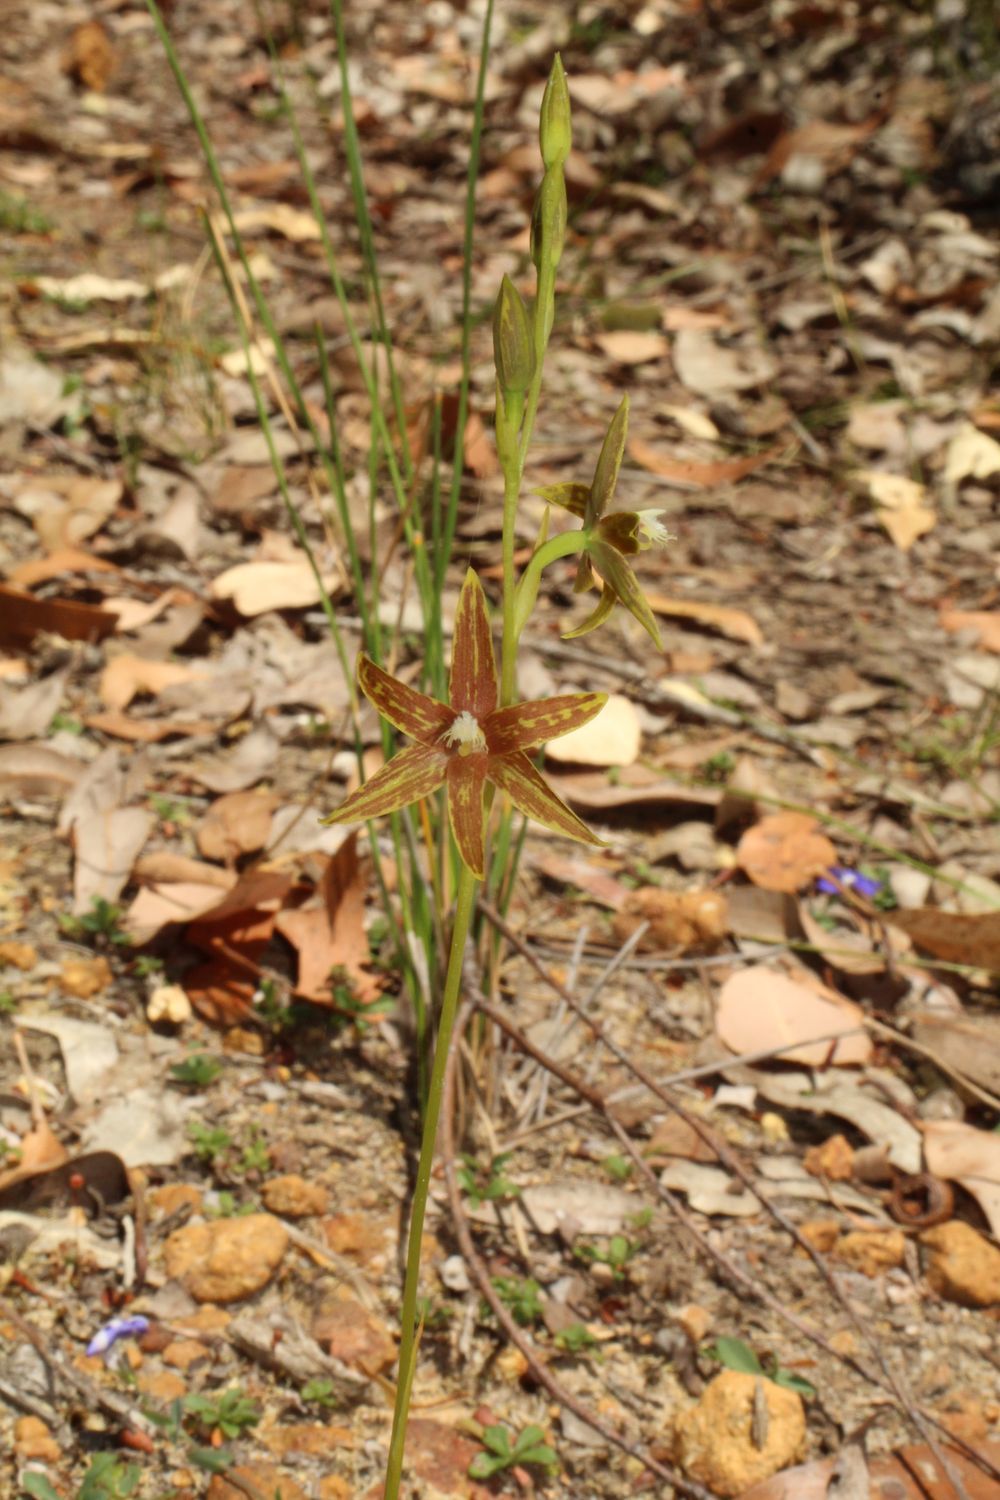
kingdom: Plantae
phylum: Tracheophyta
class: Liliopsida
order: Asparagales
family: Orchidaceae
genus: Thelymitra
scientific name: Thelymitra fuscolutea
